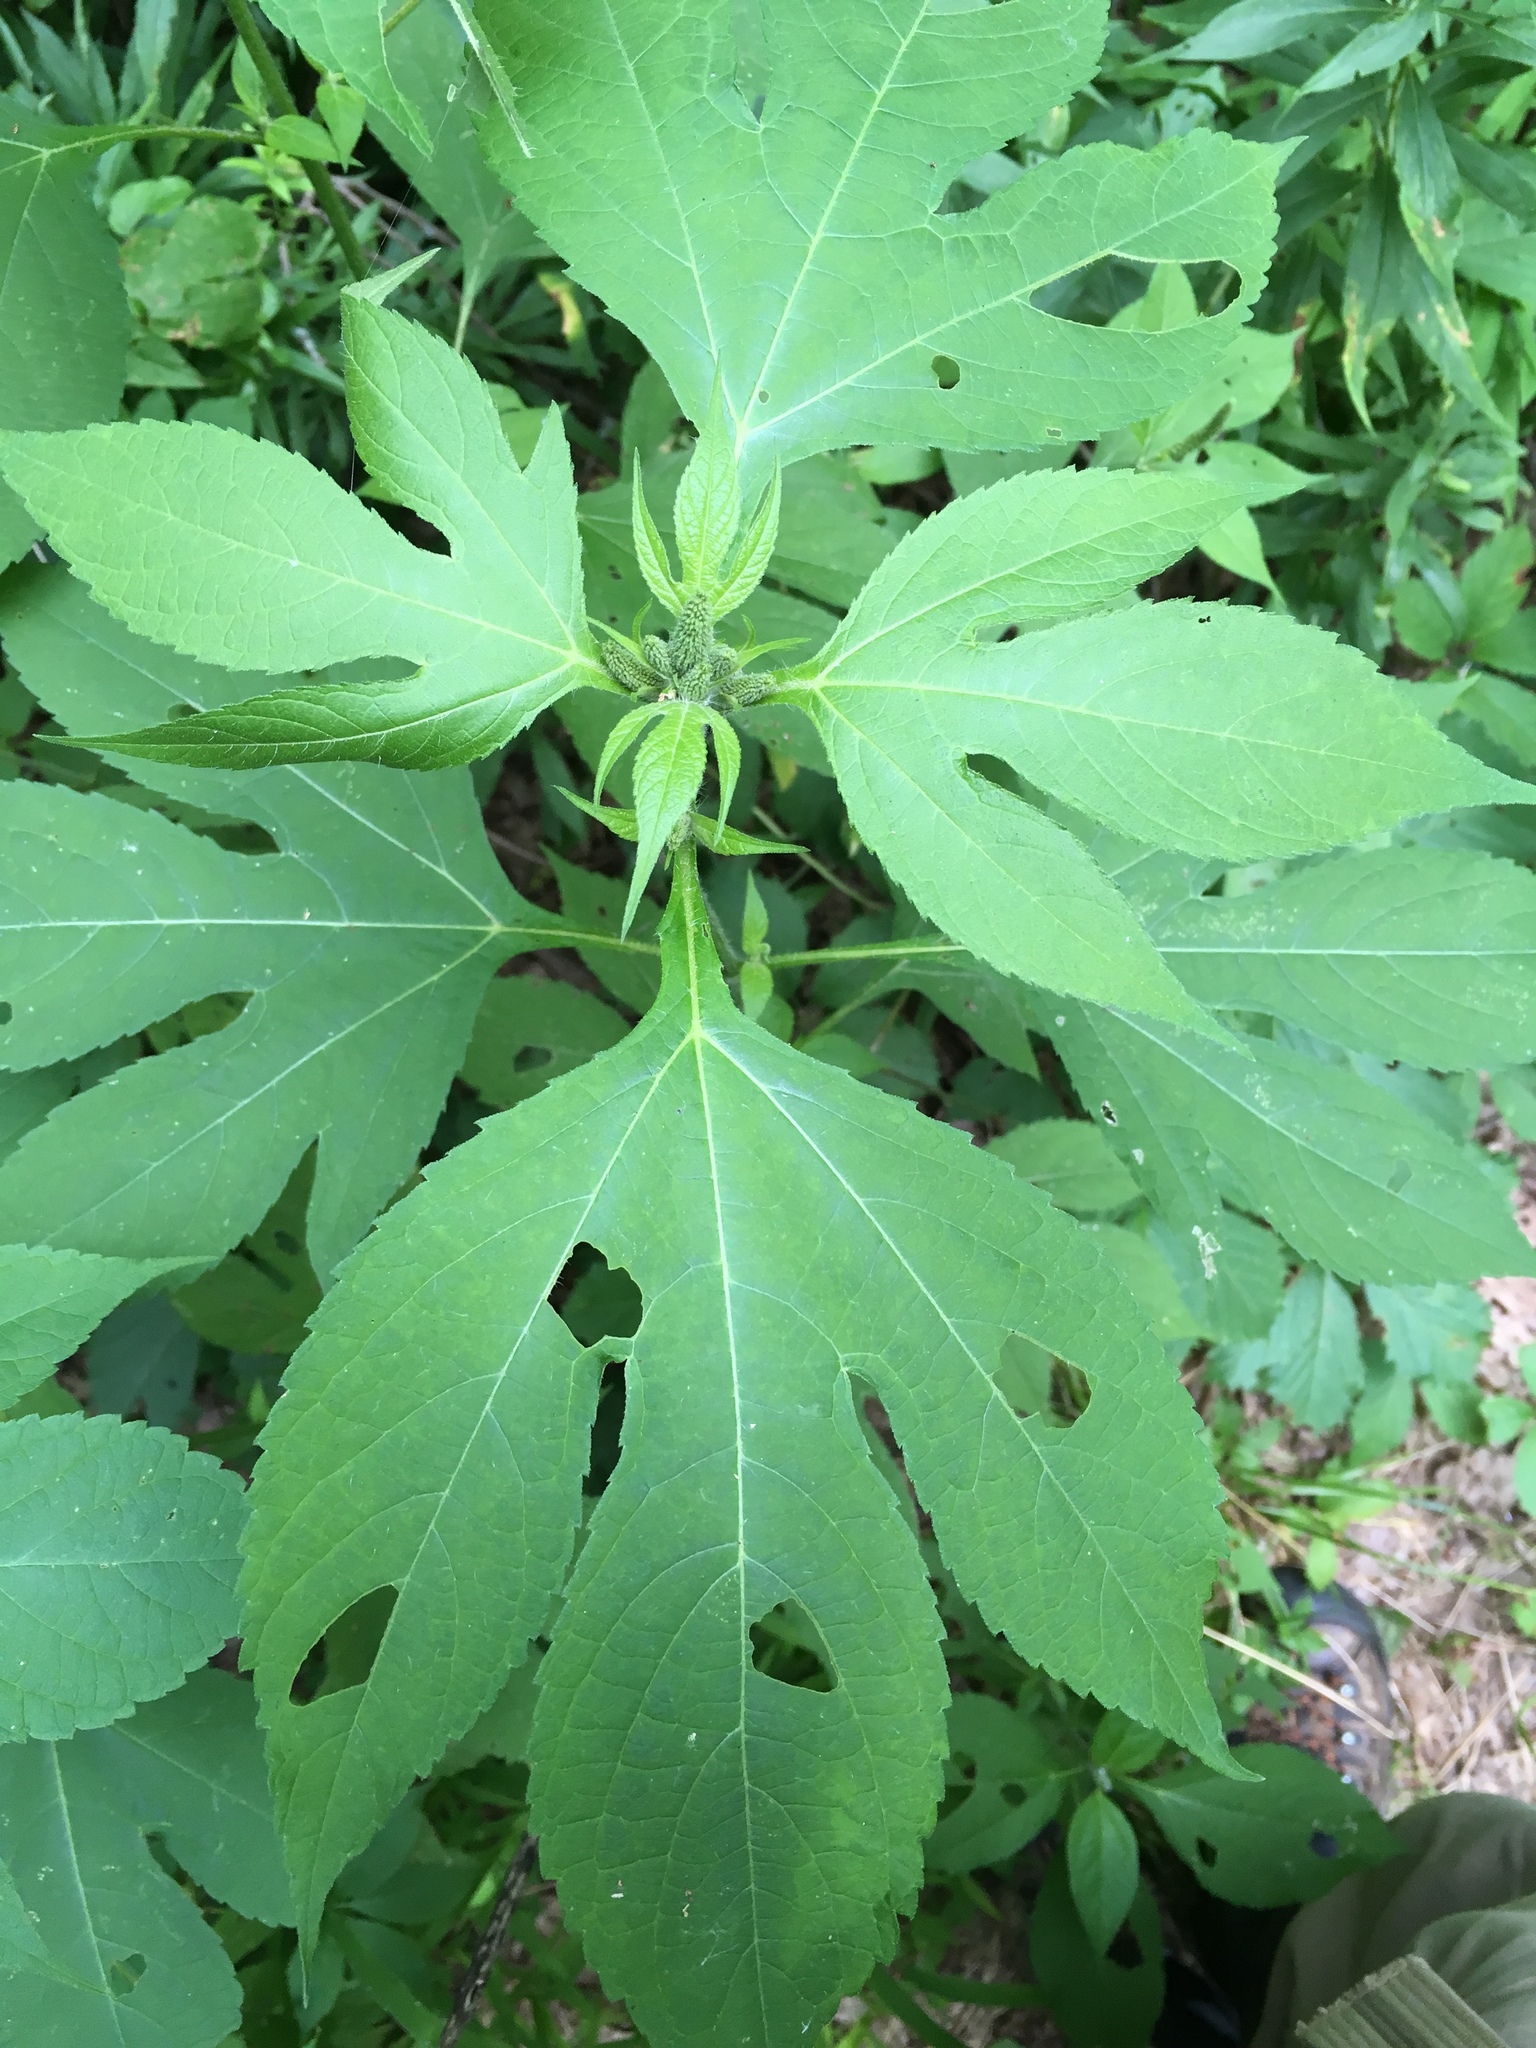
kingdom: Plantae
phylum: Tracheophyta
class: Magnoliopsida
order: Asterales
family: Asteraceae
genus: Ambrosia
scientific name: Ambrosia trifida
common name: Giant ragweed
